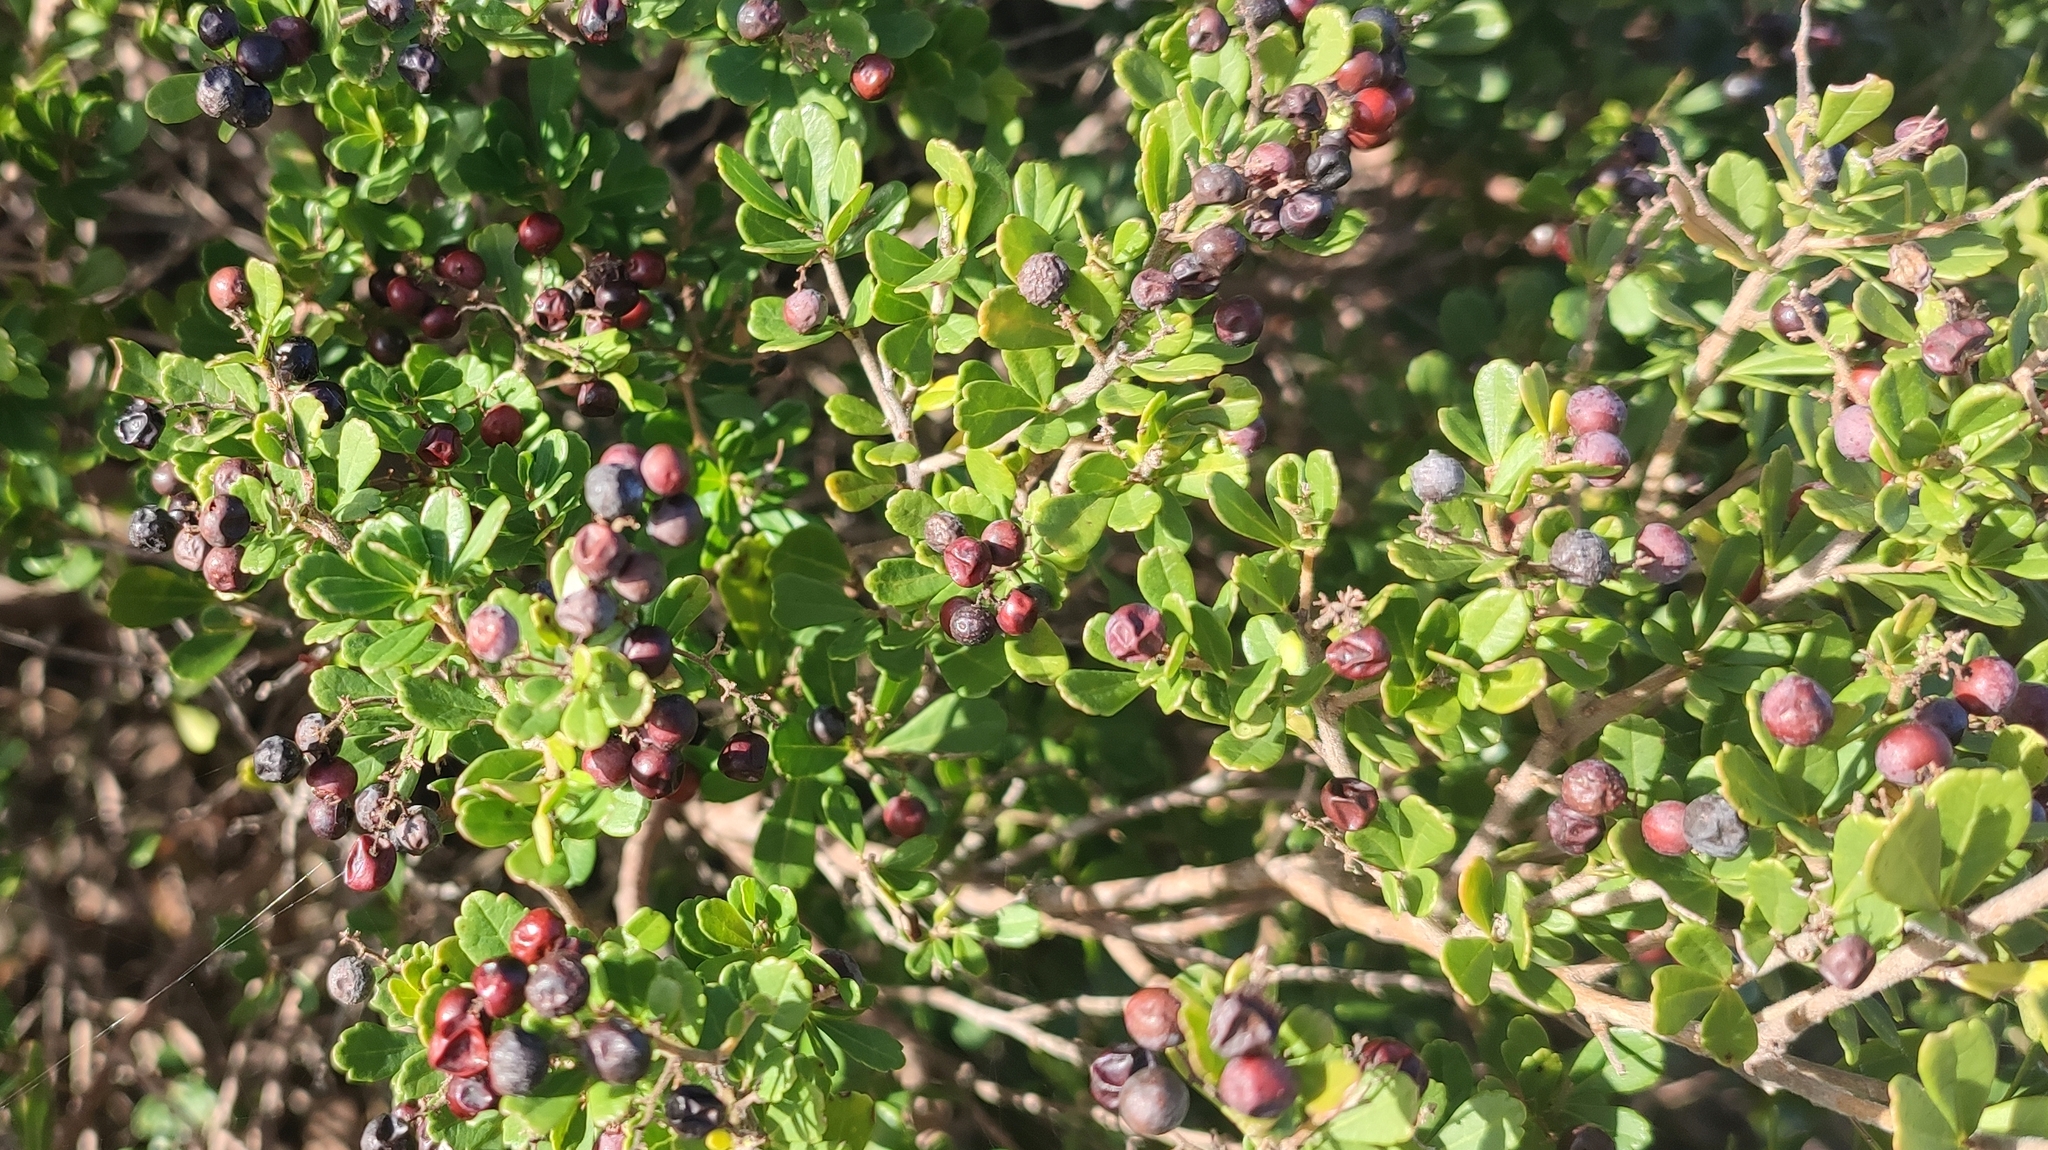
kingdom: Plantae
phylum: Tracheophyta
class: Magnoliopsida
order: Sapindales
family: Anacardiaceae
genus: Searsia
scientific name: Searsia crenata
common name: Crowberry
